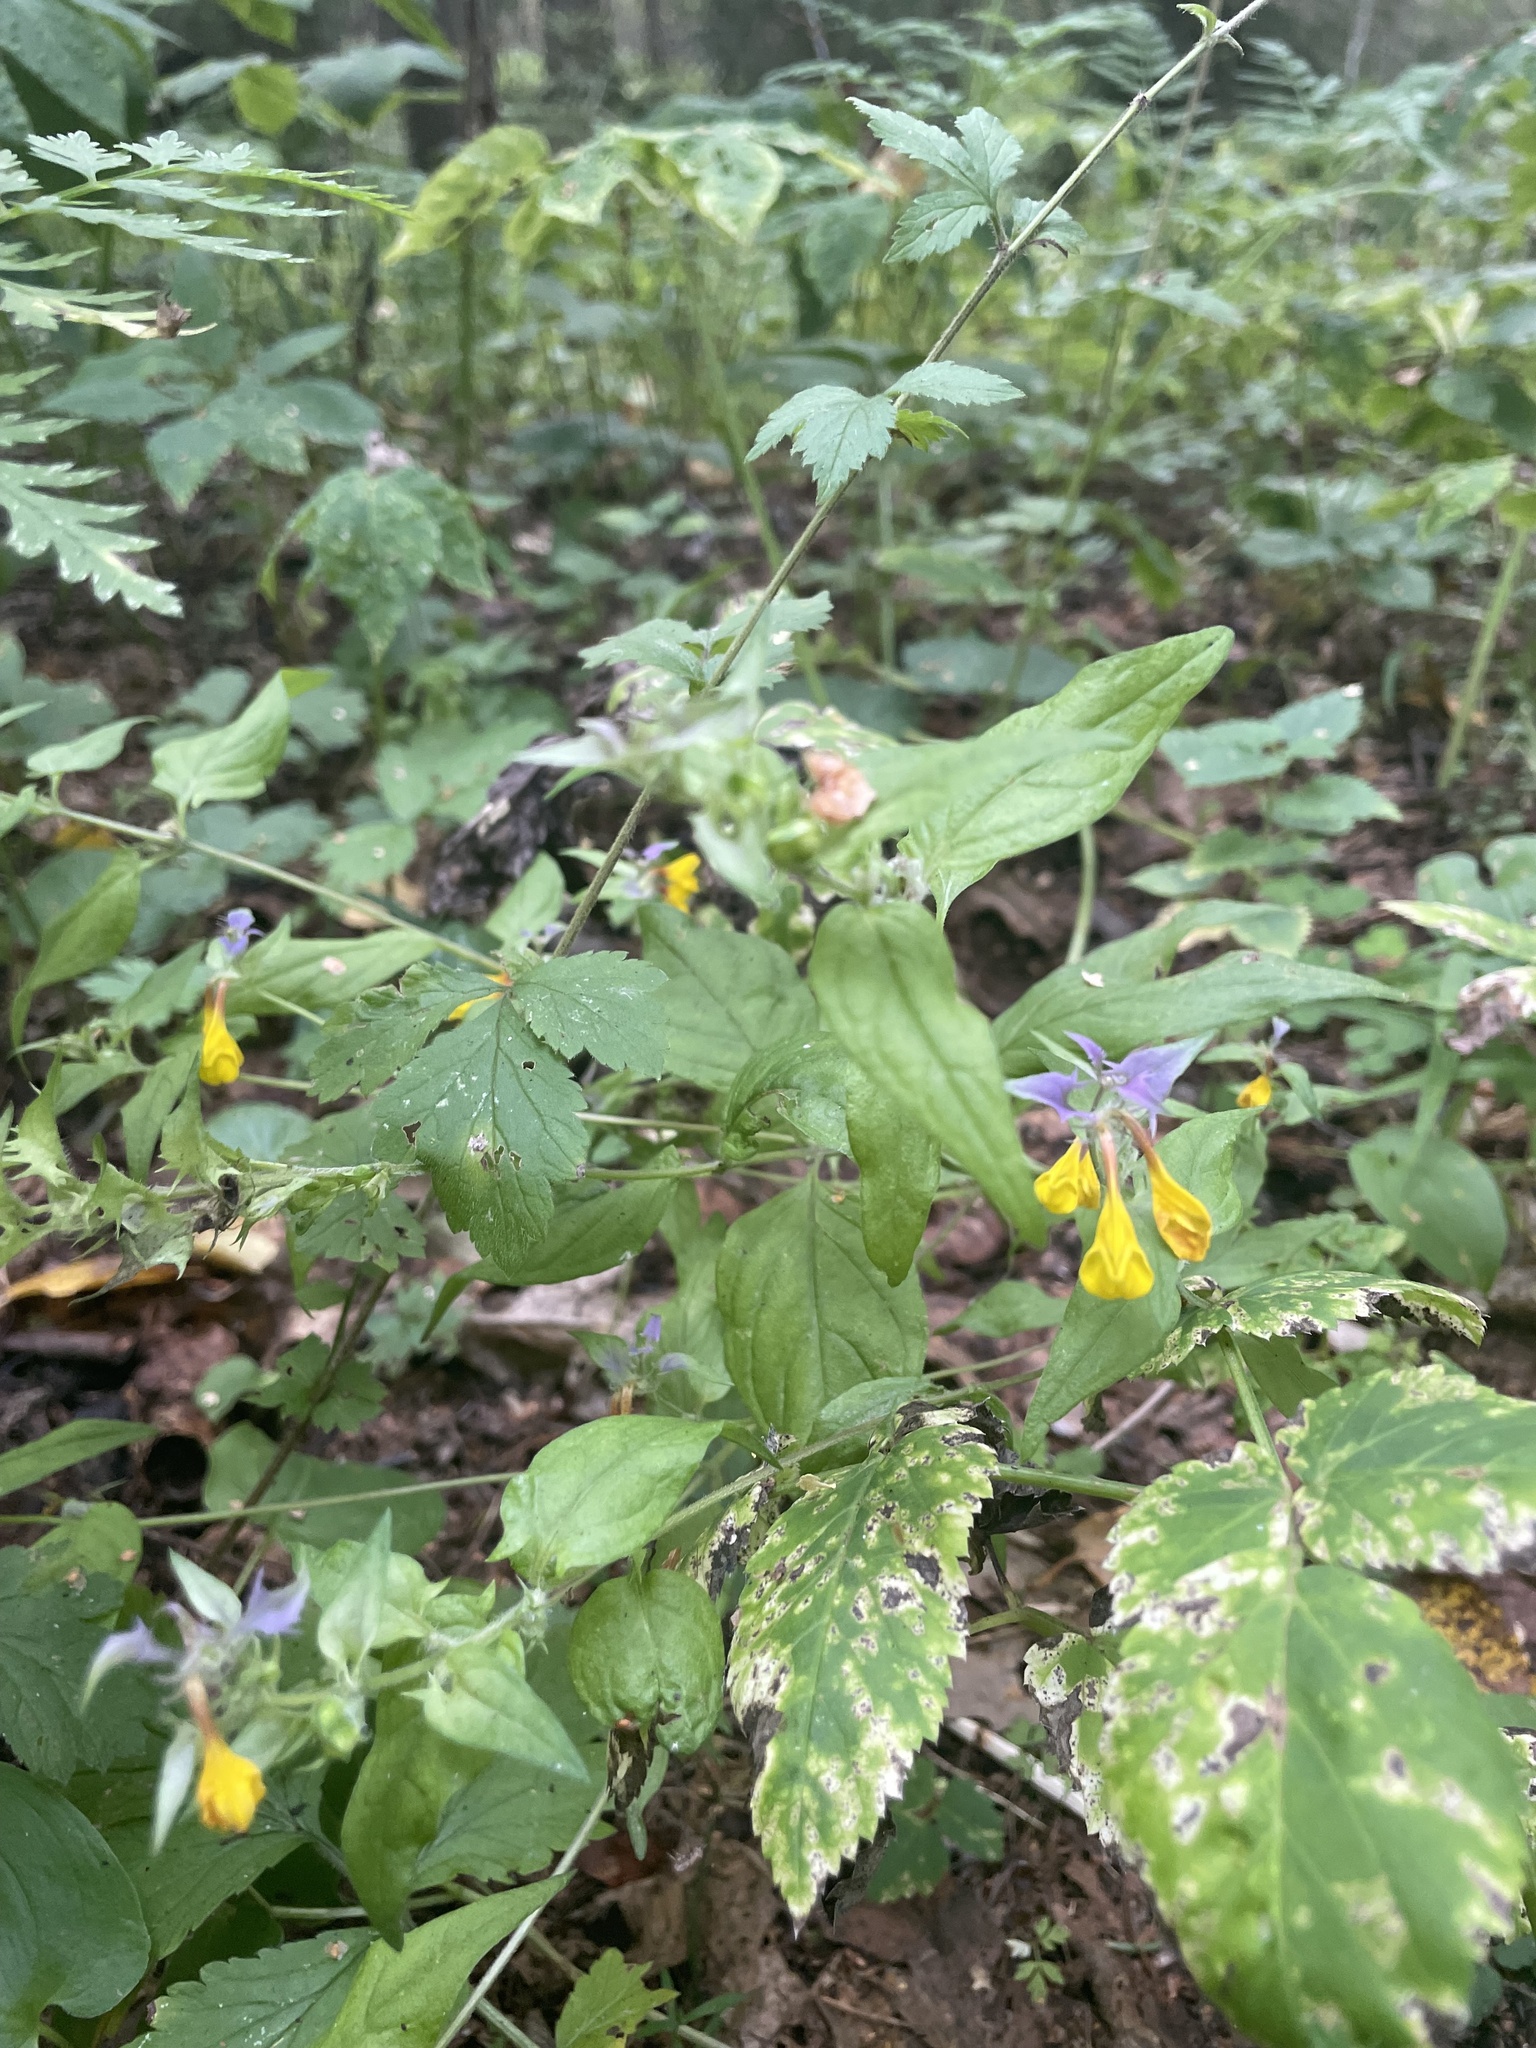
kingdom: Plantae
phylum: Tracheophyta
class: Magnoliopsida
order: Lamiales
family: Orobanchaceae
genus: Melampyrum
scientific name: Melampyrum nemorosum
